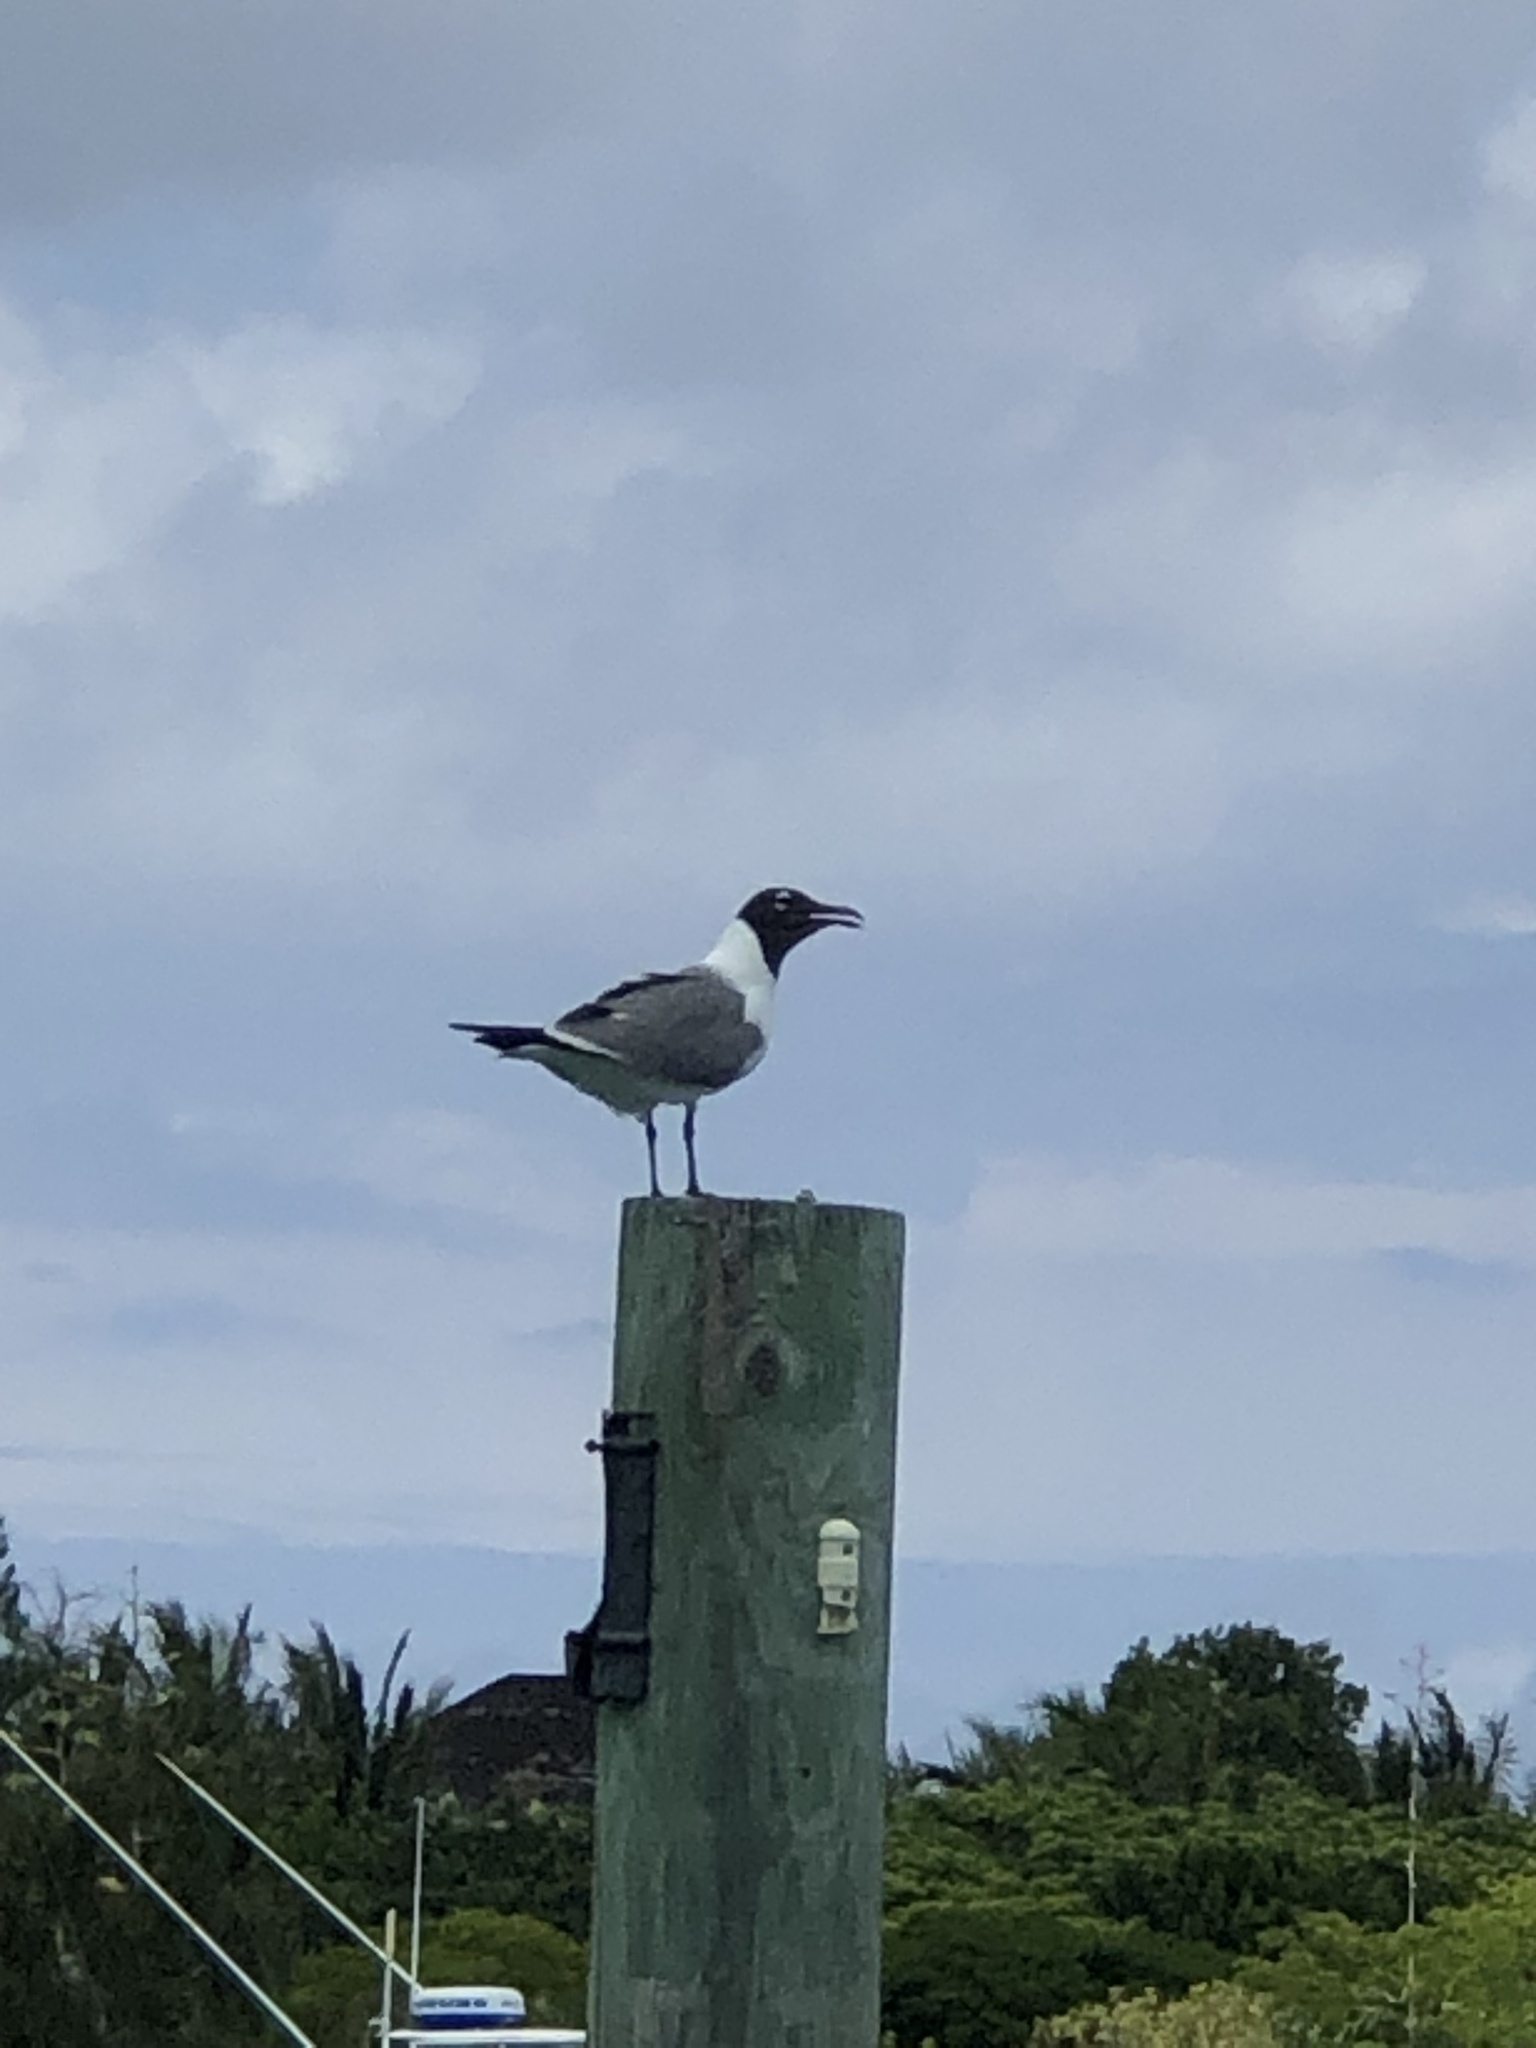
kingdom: Animalia
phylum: Chordata
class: Aves
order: Charadriiformes
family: Laridae
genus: Leucophaeus
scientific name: Leucophaeus atricilla
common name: Laughing gull
